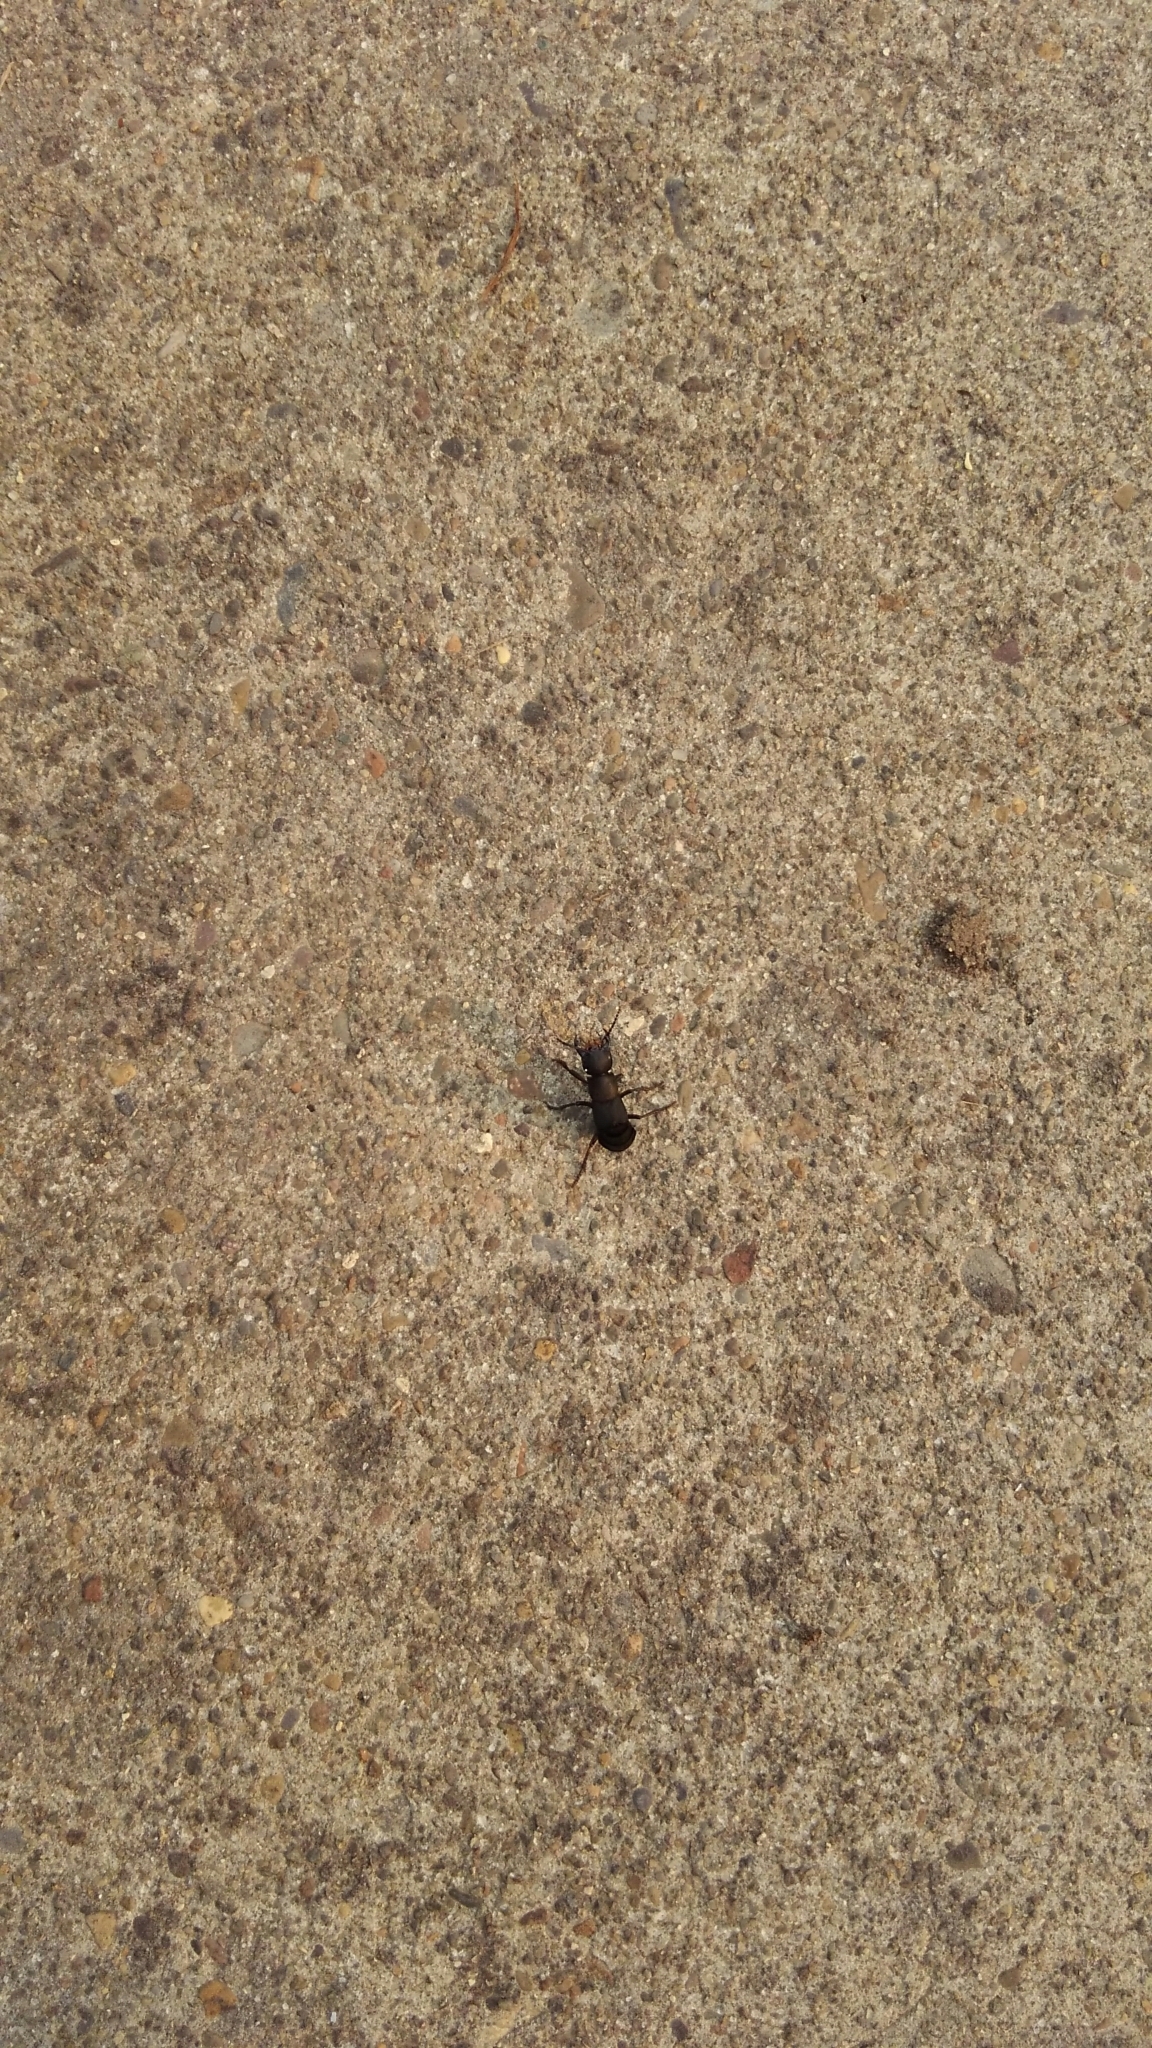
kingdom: Animalia
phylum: Arthropoda
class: Insecta
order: Coleoptera
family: Staphylinidae
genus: Ocypus
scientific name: Ocypus olens
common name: Devil's coach-horse
